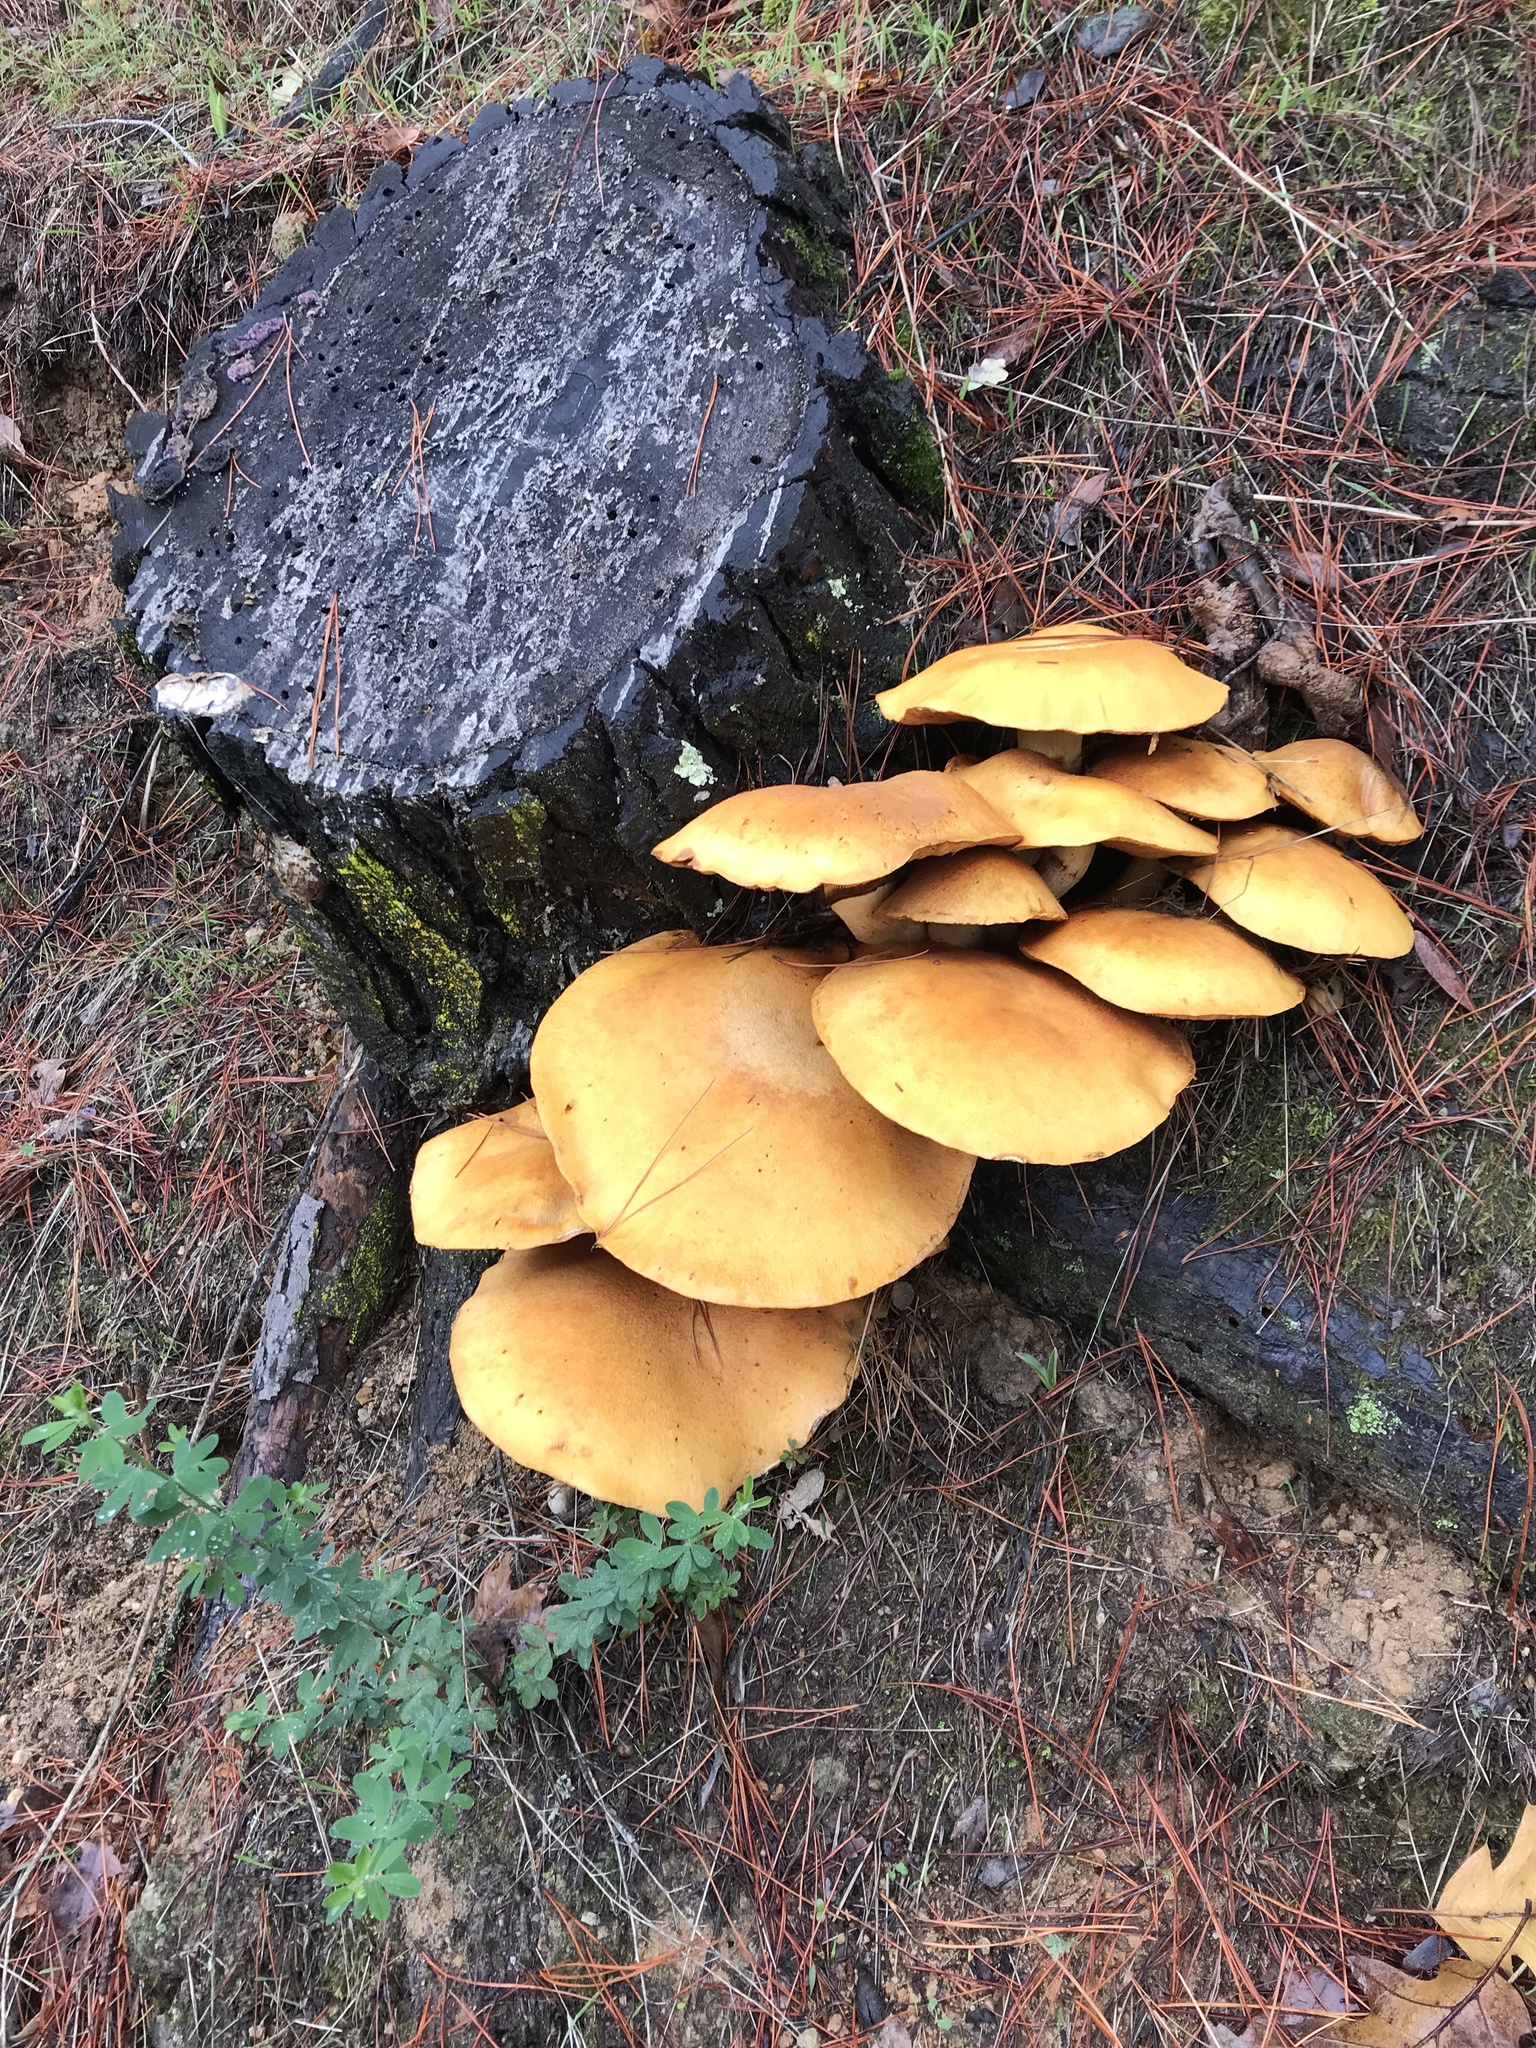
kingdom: Fungi
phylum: Basidiomycota
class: Agaricomycetes
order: Agaricales
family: Hymenogastraceae
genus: Gymnopilus
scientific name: Gymnopilus ventricosus
